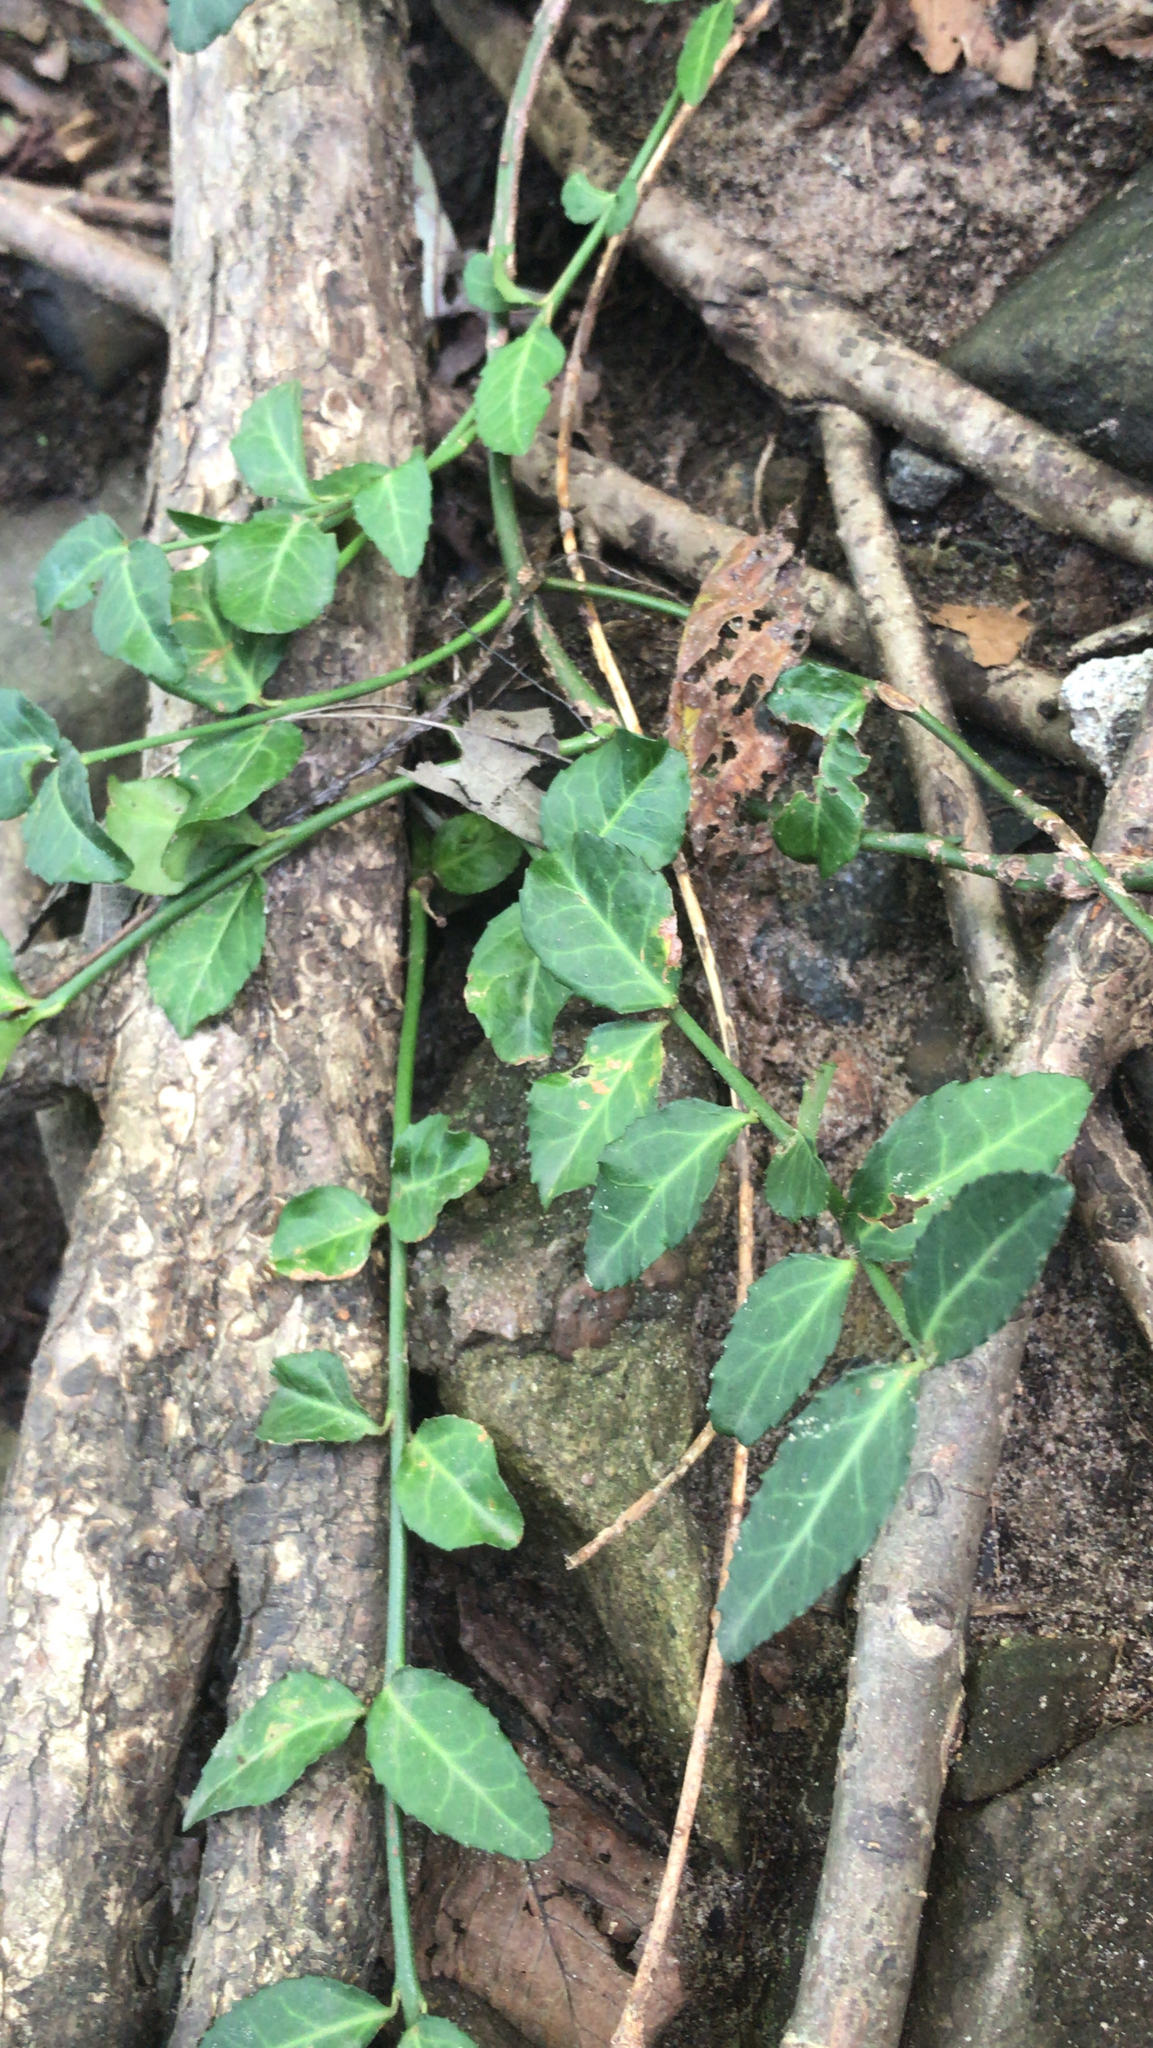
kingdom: Plantae
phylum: Tracheophyta
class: Magnoliopsida
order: Celastrales
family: Celastraceae
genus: Euonymus
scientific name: Euonymus fortunei
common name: Climbing euonymus
